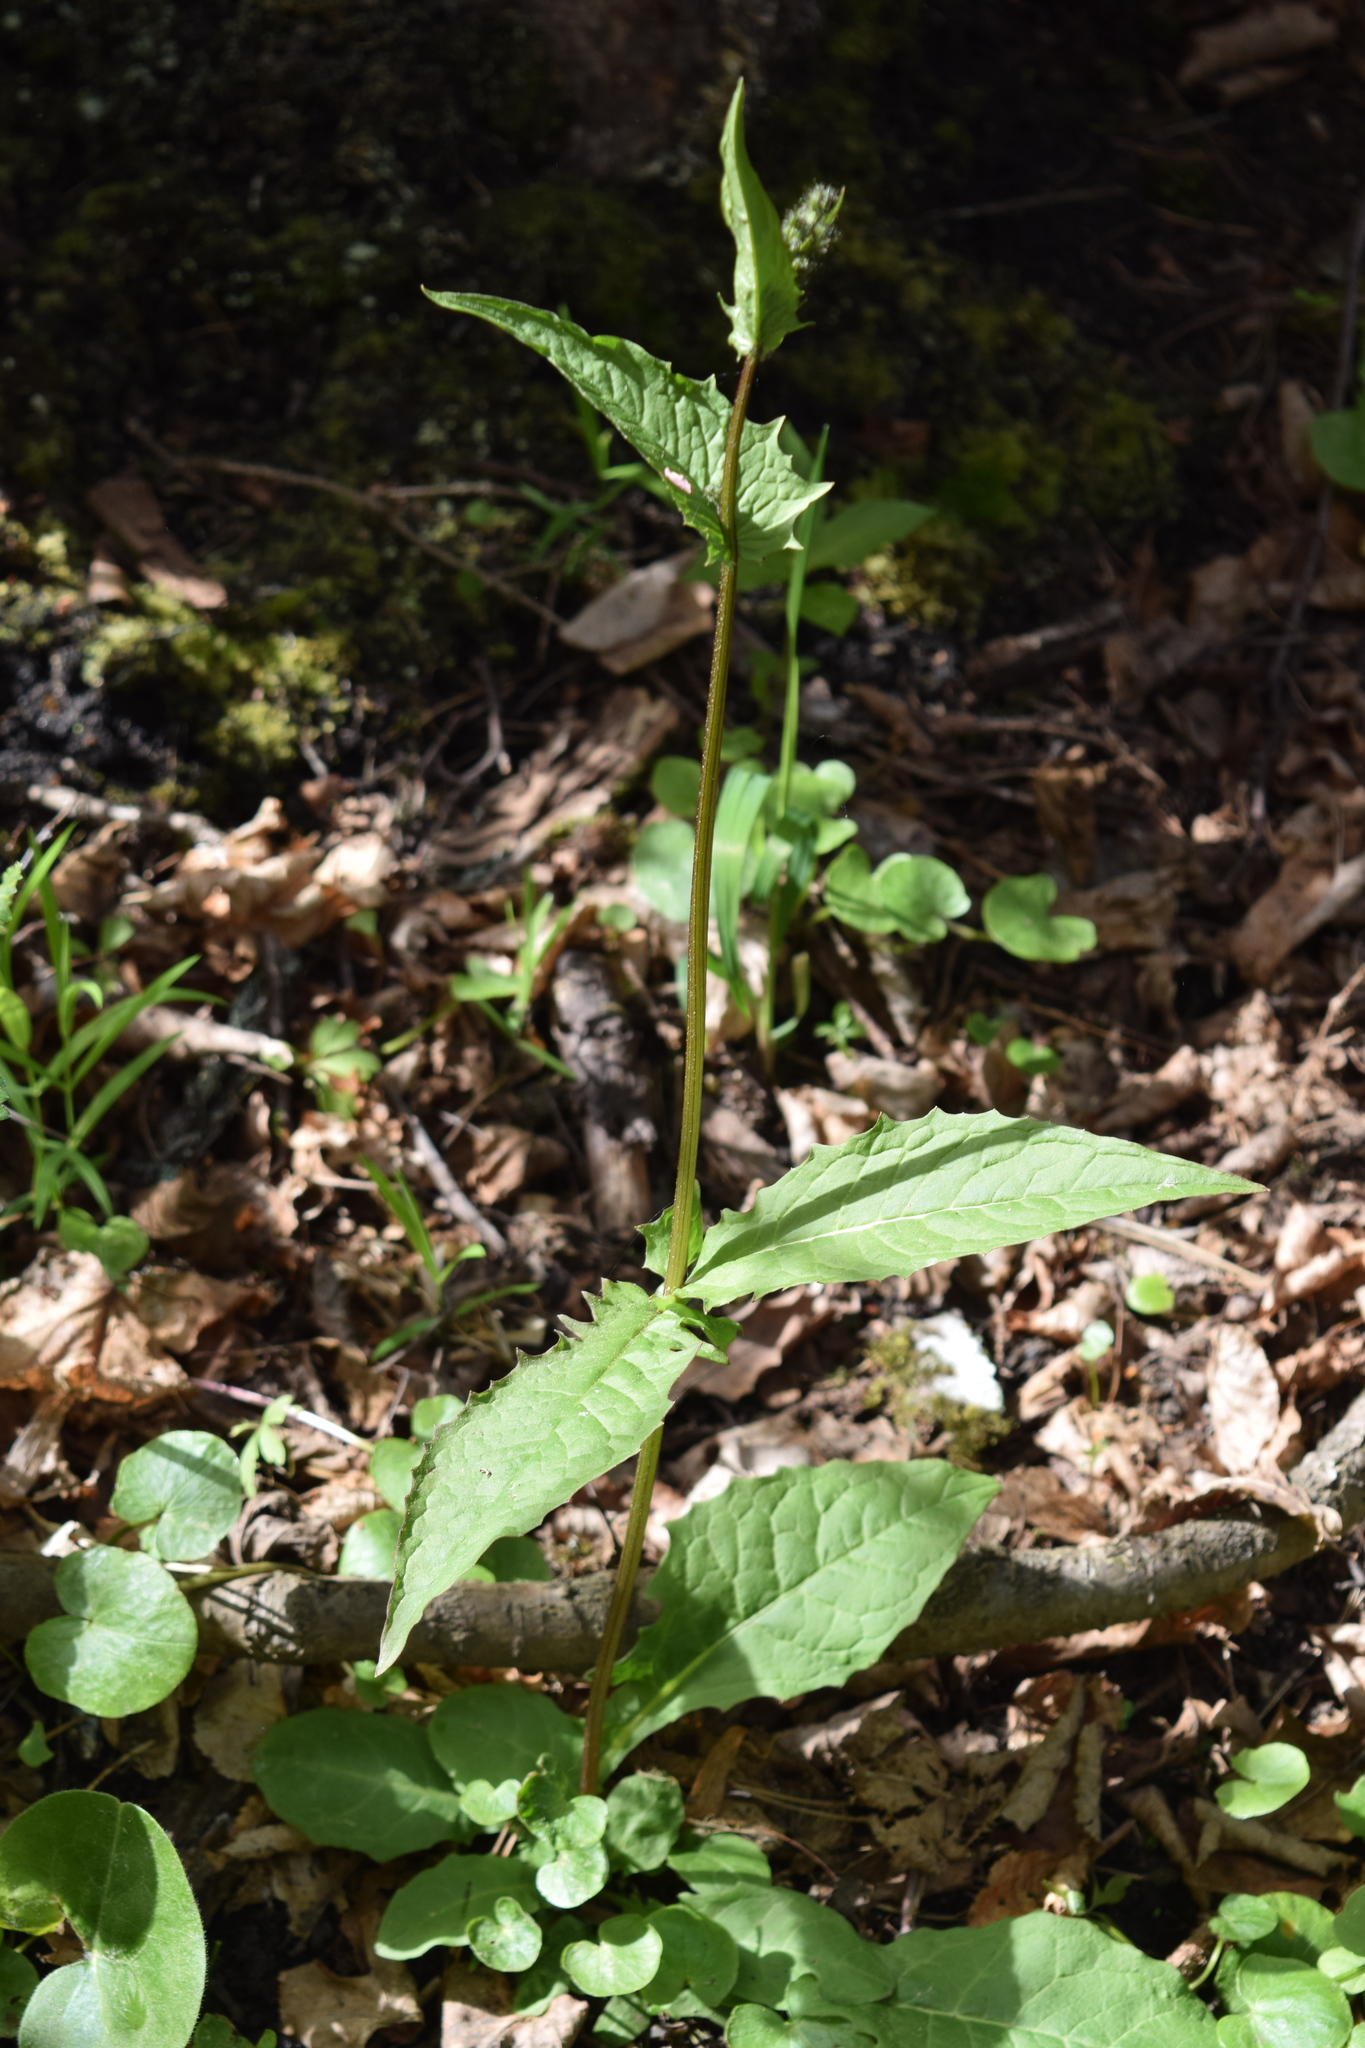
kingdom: Plantae
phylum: Tracheophyta
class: Magnoliopsida
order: Asterales
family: Asteraceae
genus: Crepis
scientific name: Crepis paludosa
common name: Marsh hawk's-beard
